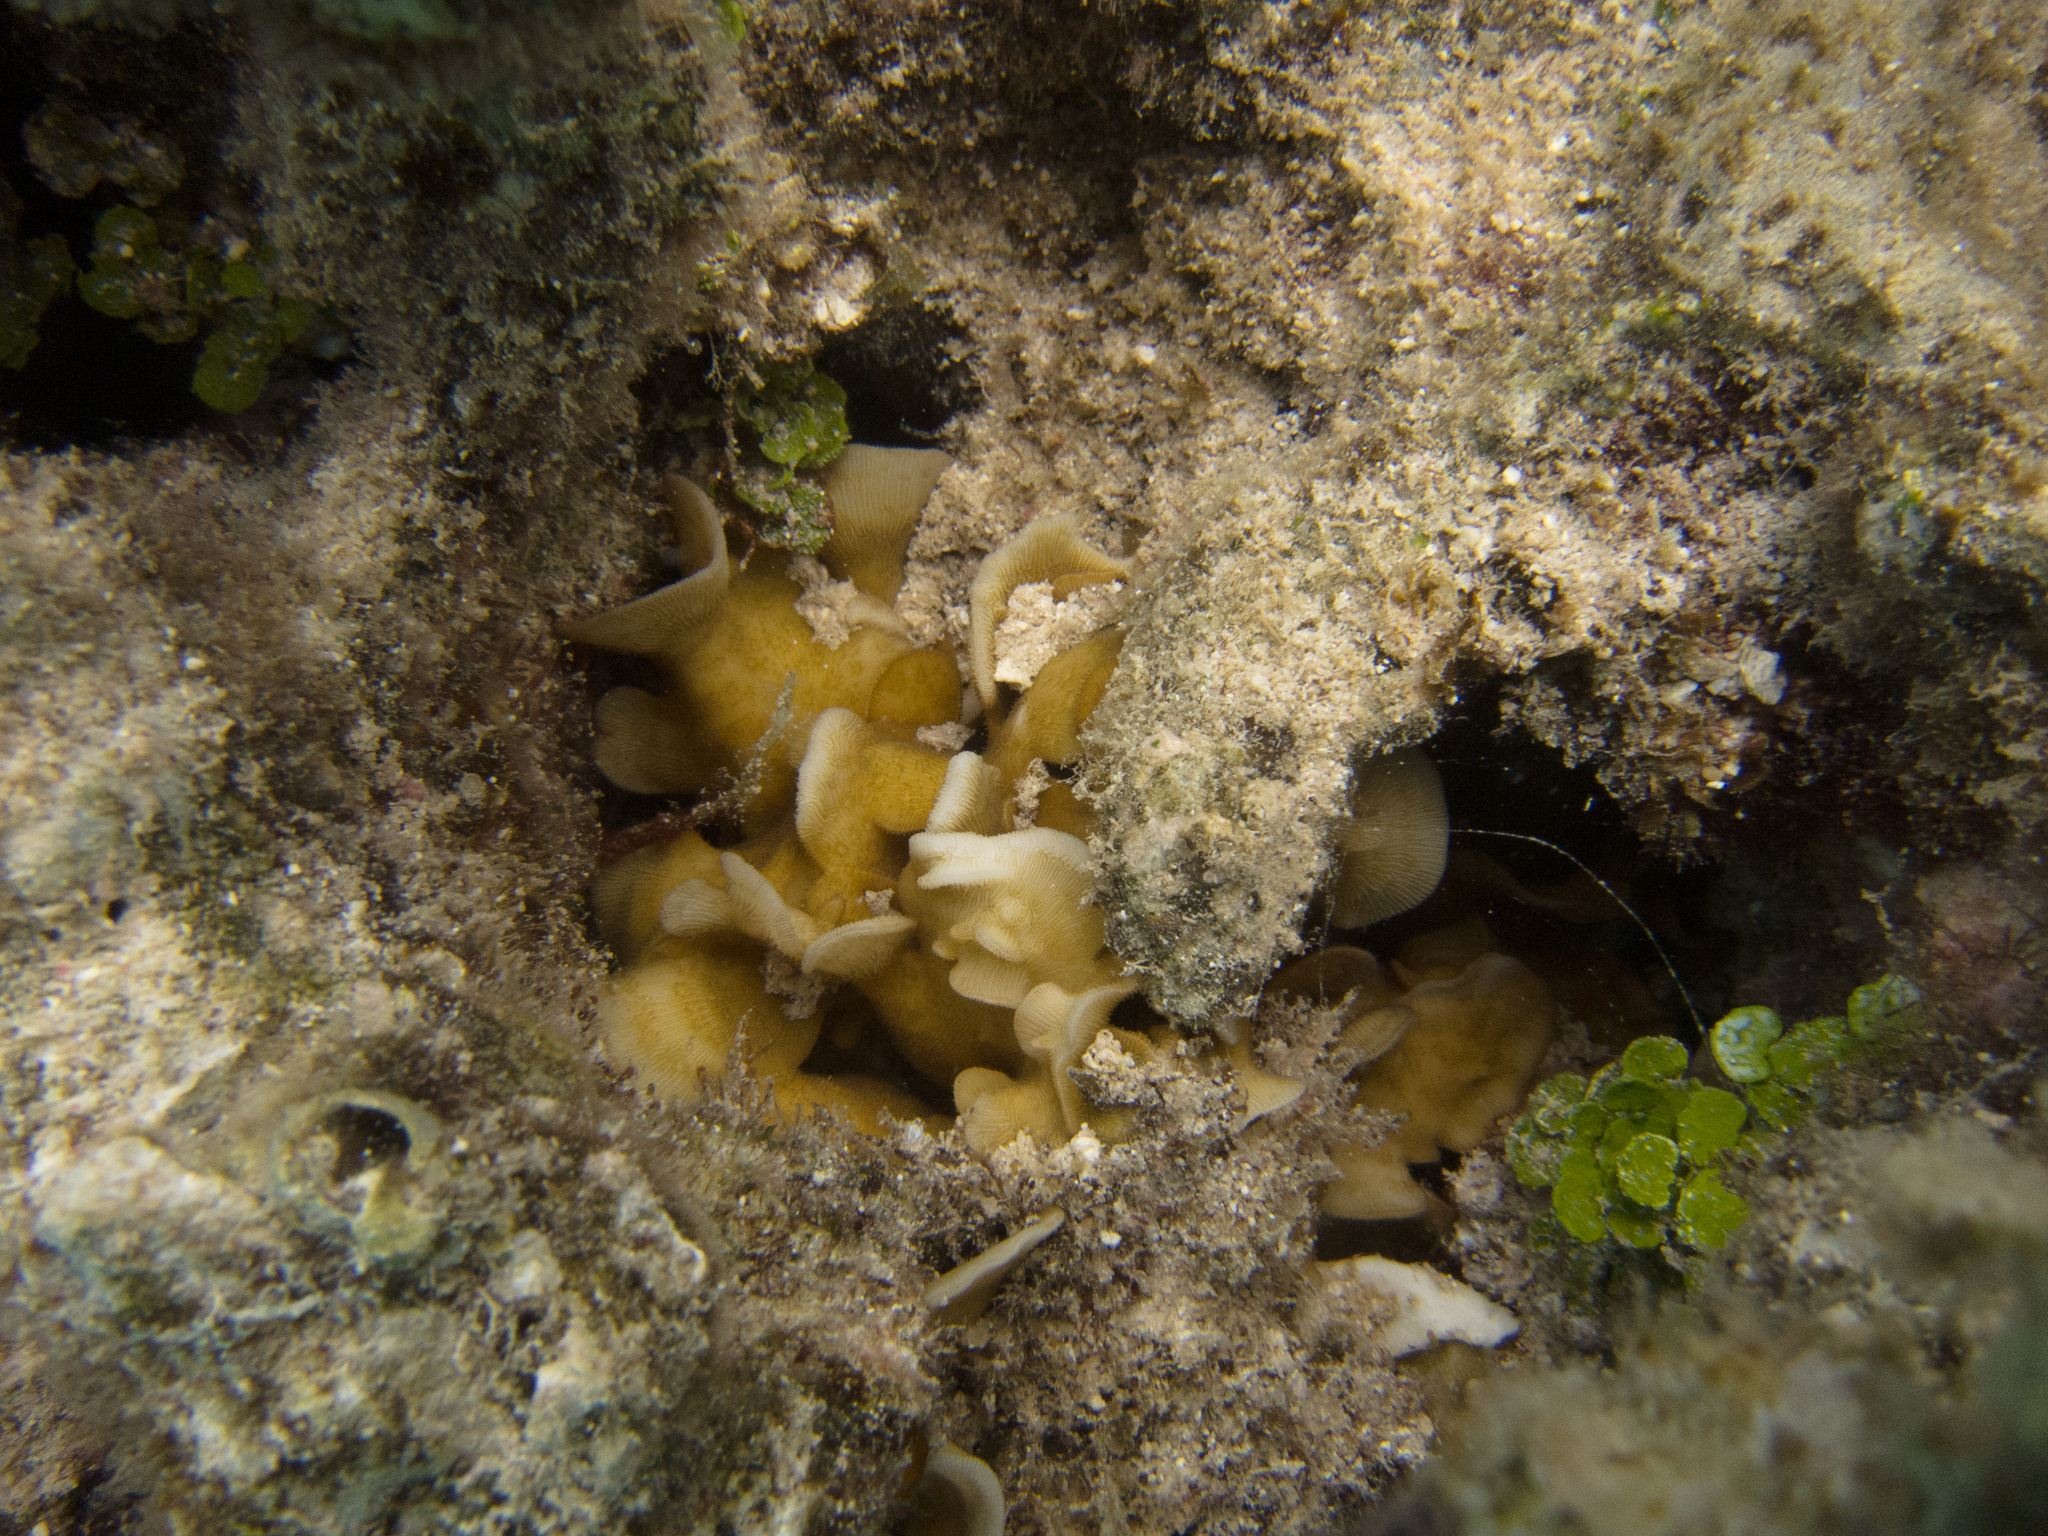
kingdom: Animalia
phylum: Cnidaria
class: Anthozoa
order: Scleractinia
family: Agariciidae
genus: Pavona
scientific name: Pavona cactus
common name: Leaf coral
